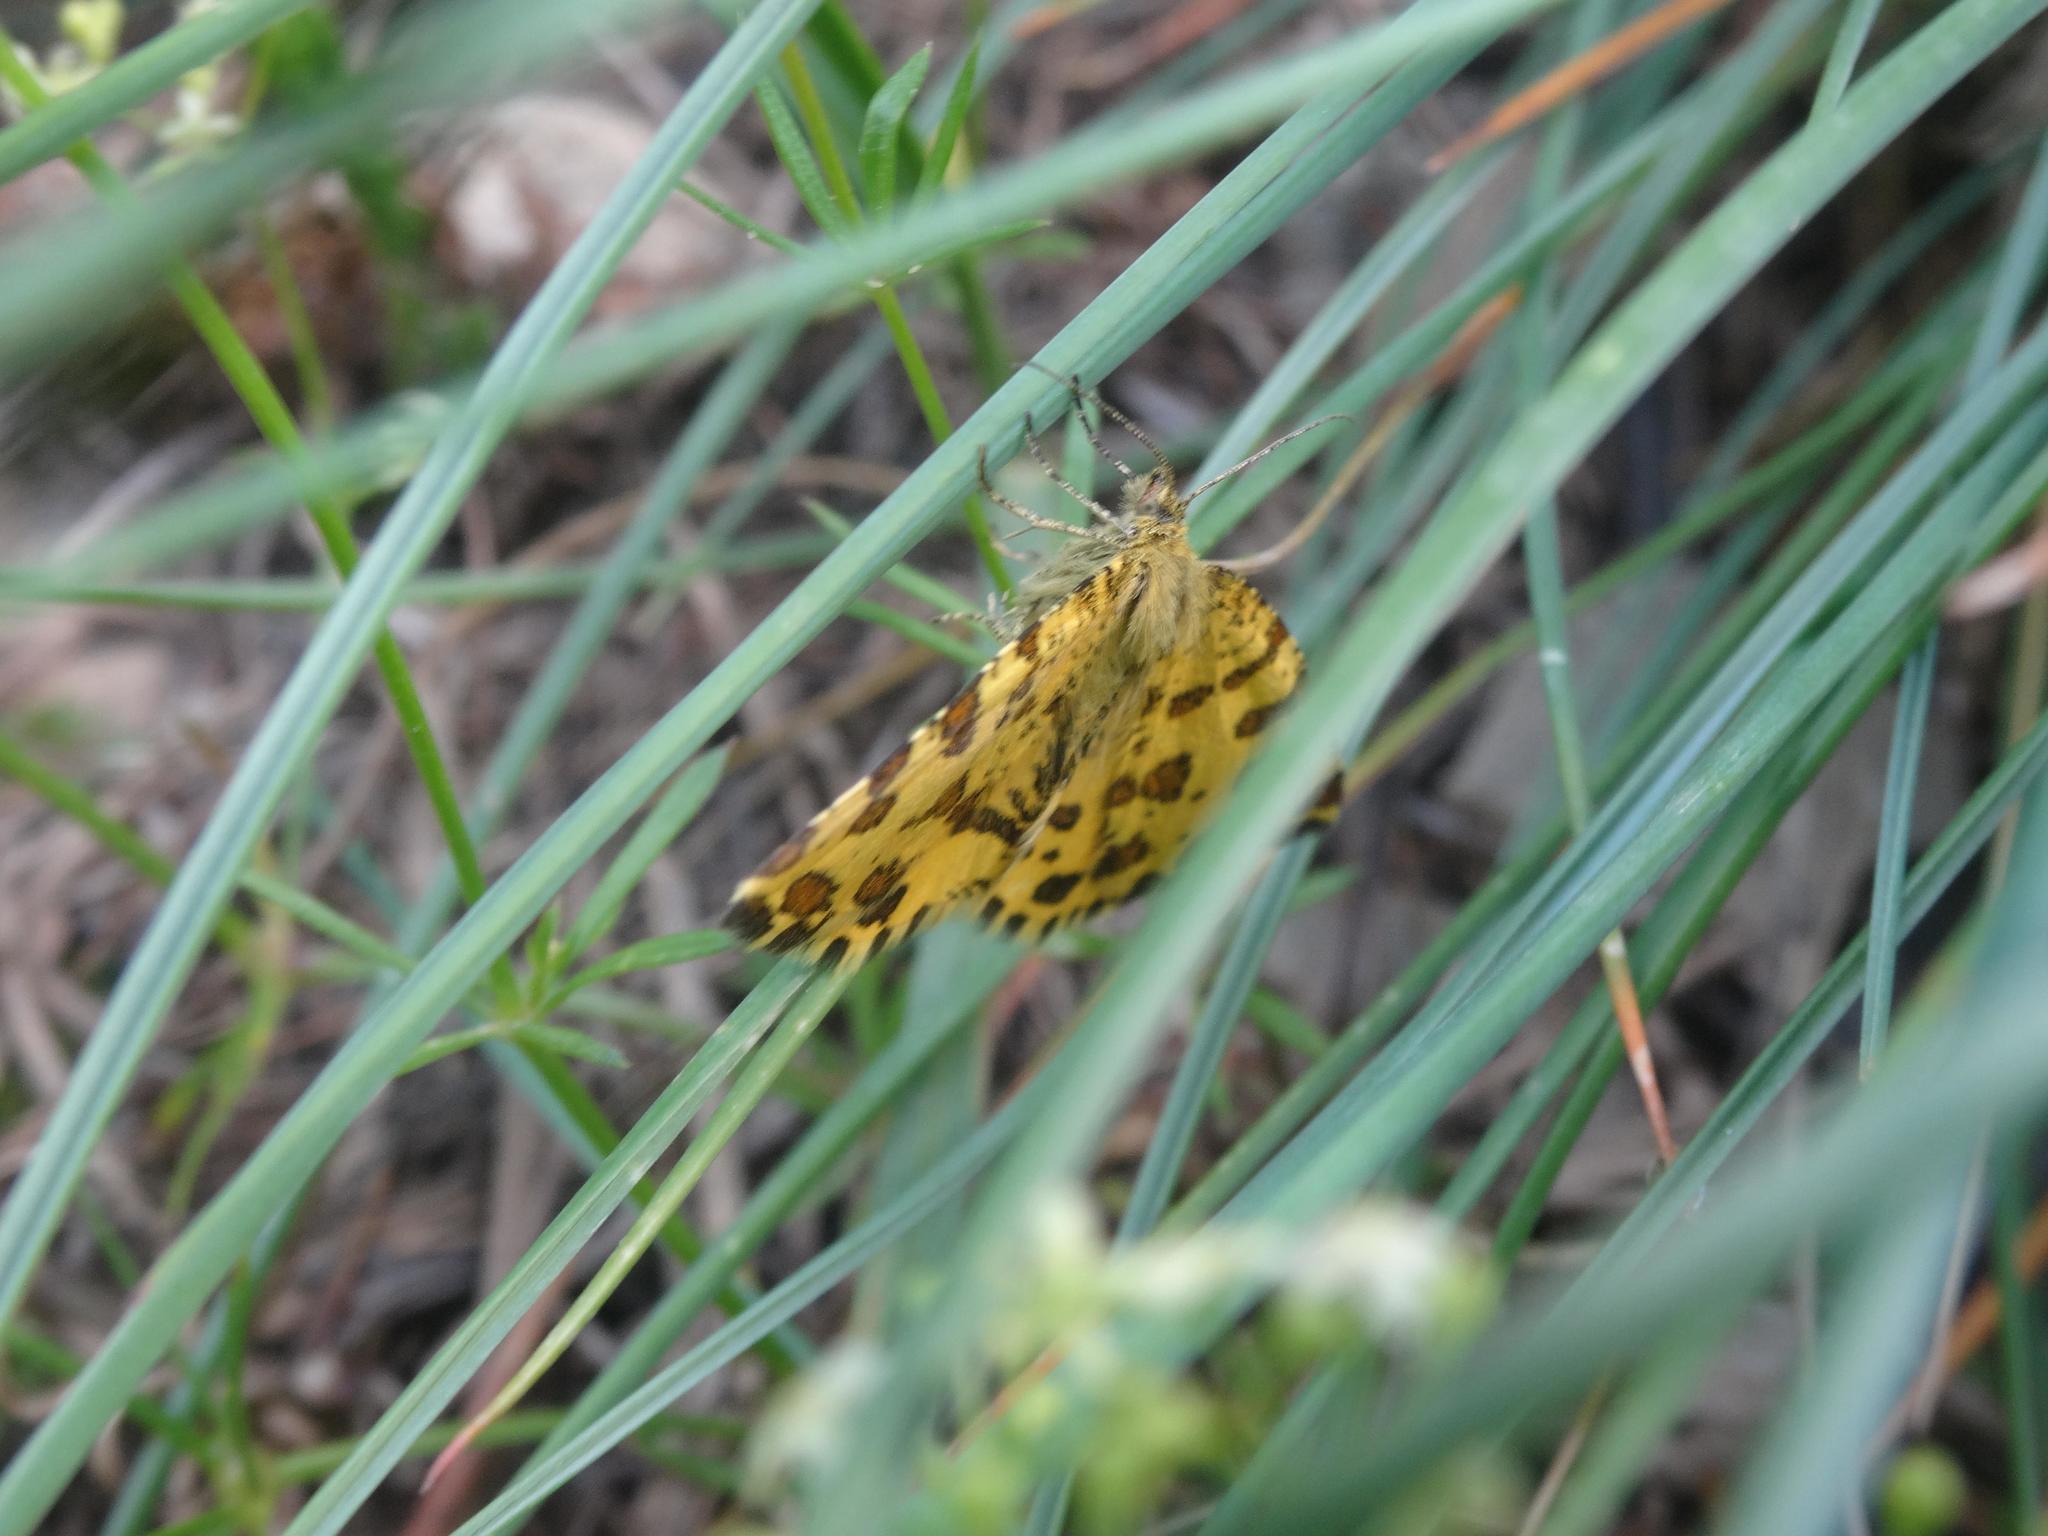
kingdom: Animalia
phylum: Arthropoda
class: Insecta
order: Lepidoptera
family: Geometridae
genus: Pseudopanthera
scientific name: Pseudopanthera macularia
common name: Speckled yellow
